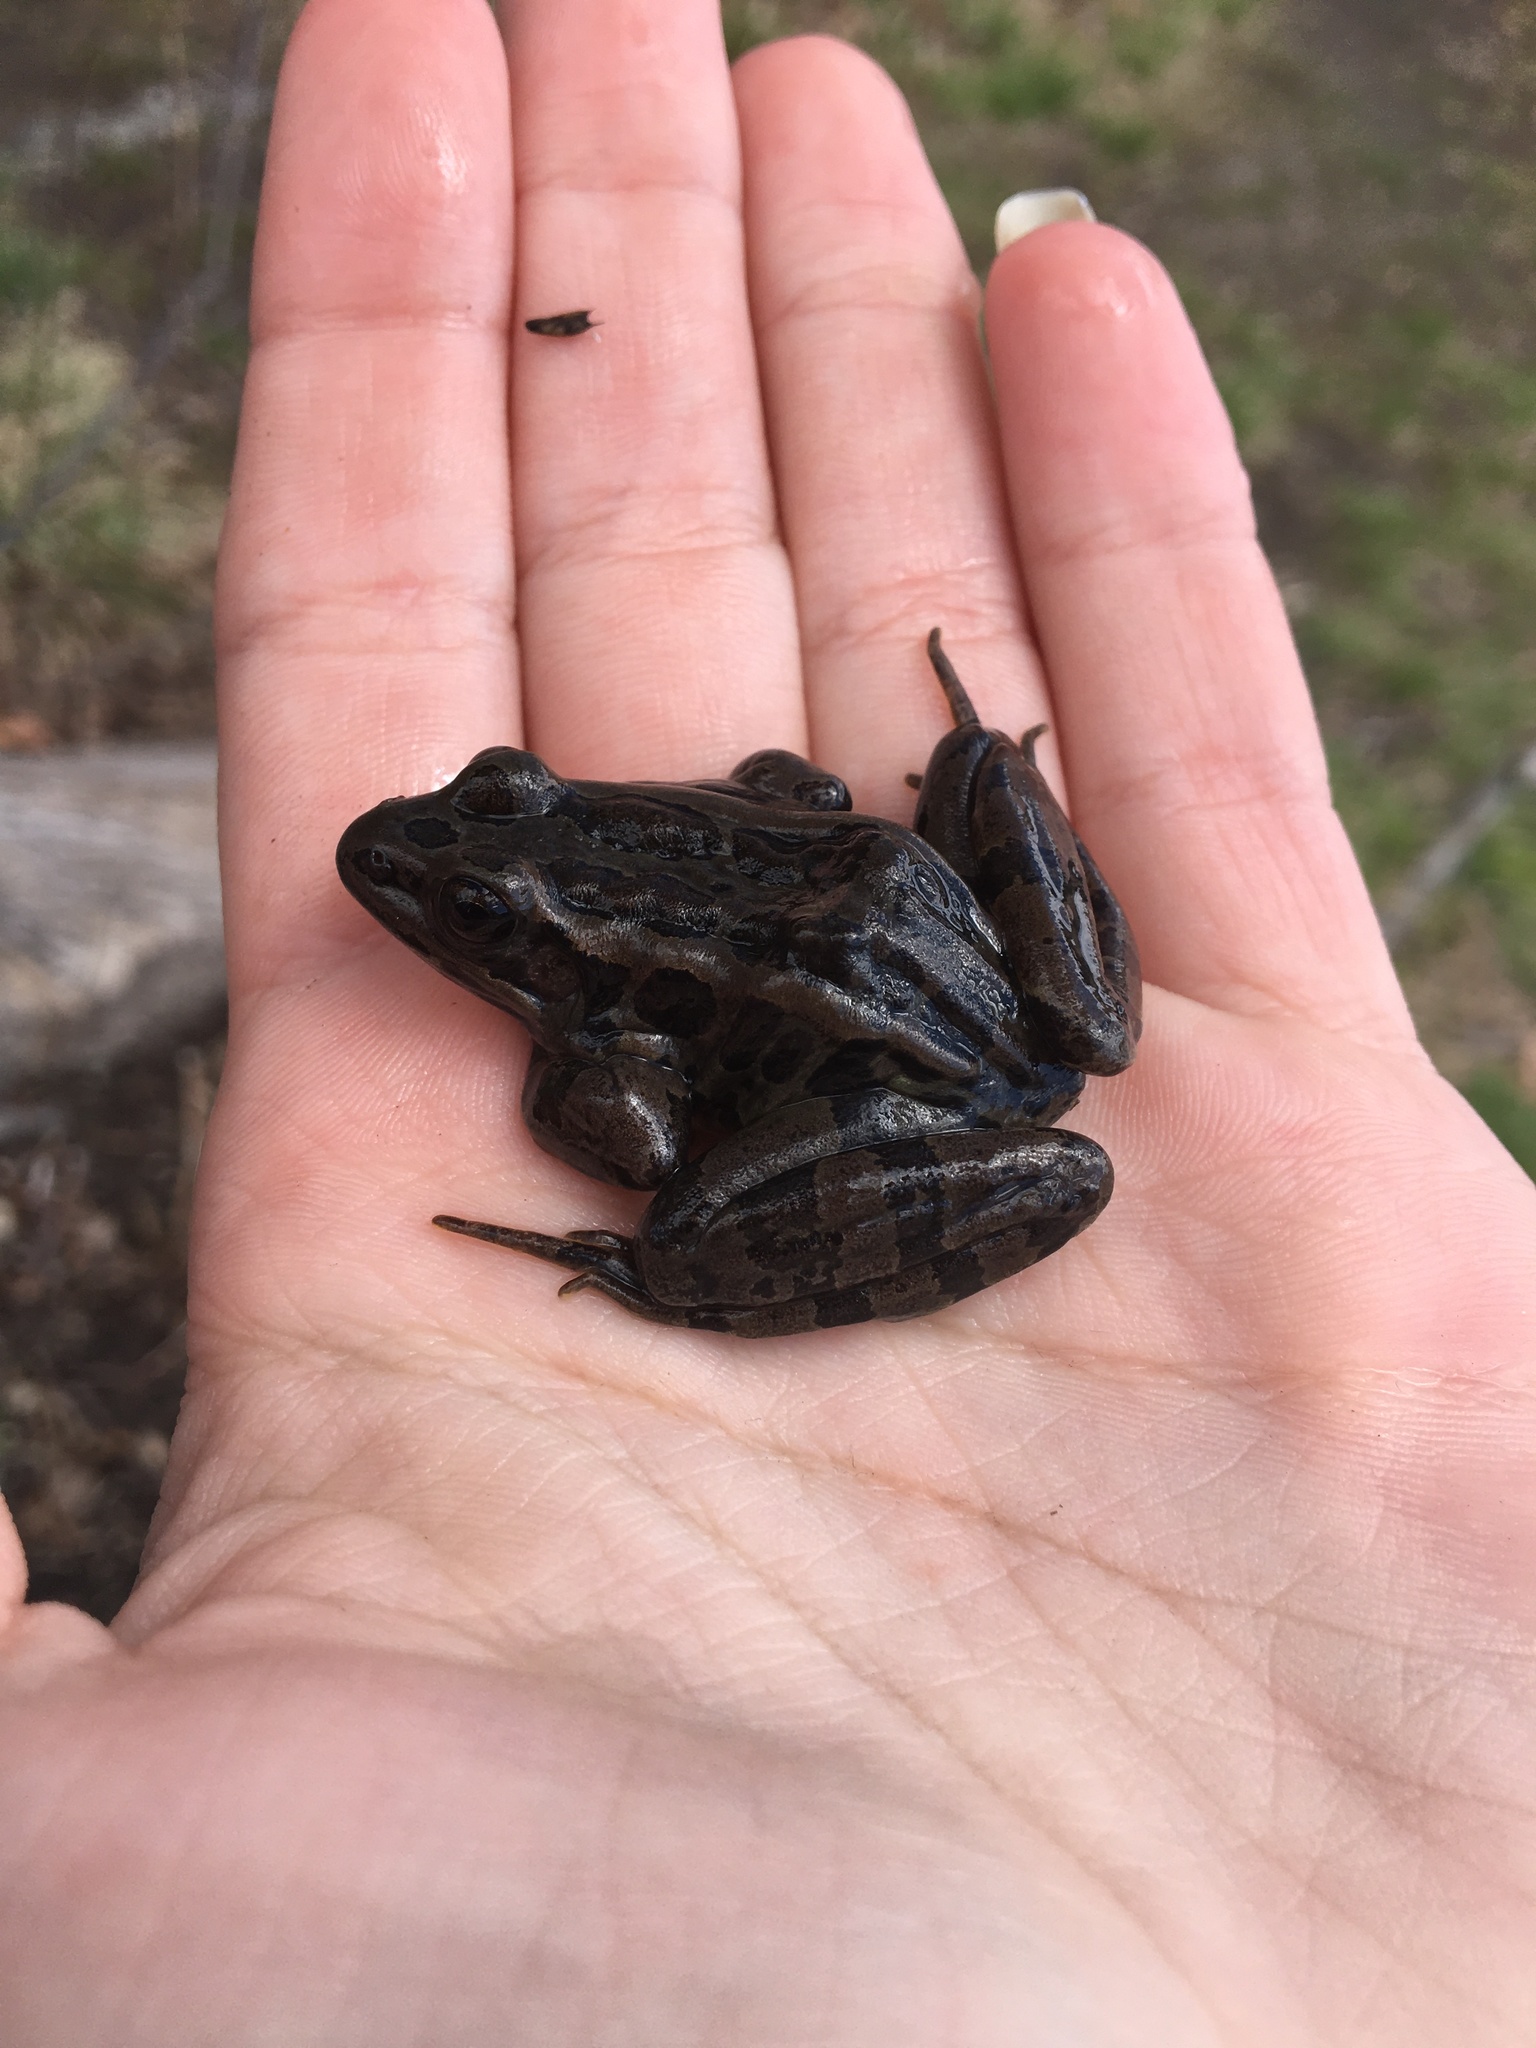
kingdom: Animalia
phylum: Chordata
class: Amphibia
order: Anura
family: Ranidae
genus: Lithobates
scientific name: Lithobates palustris
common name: Pickerel frog
